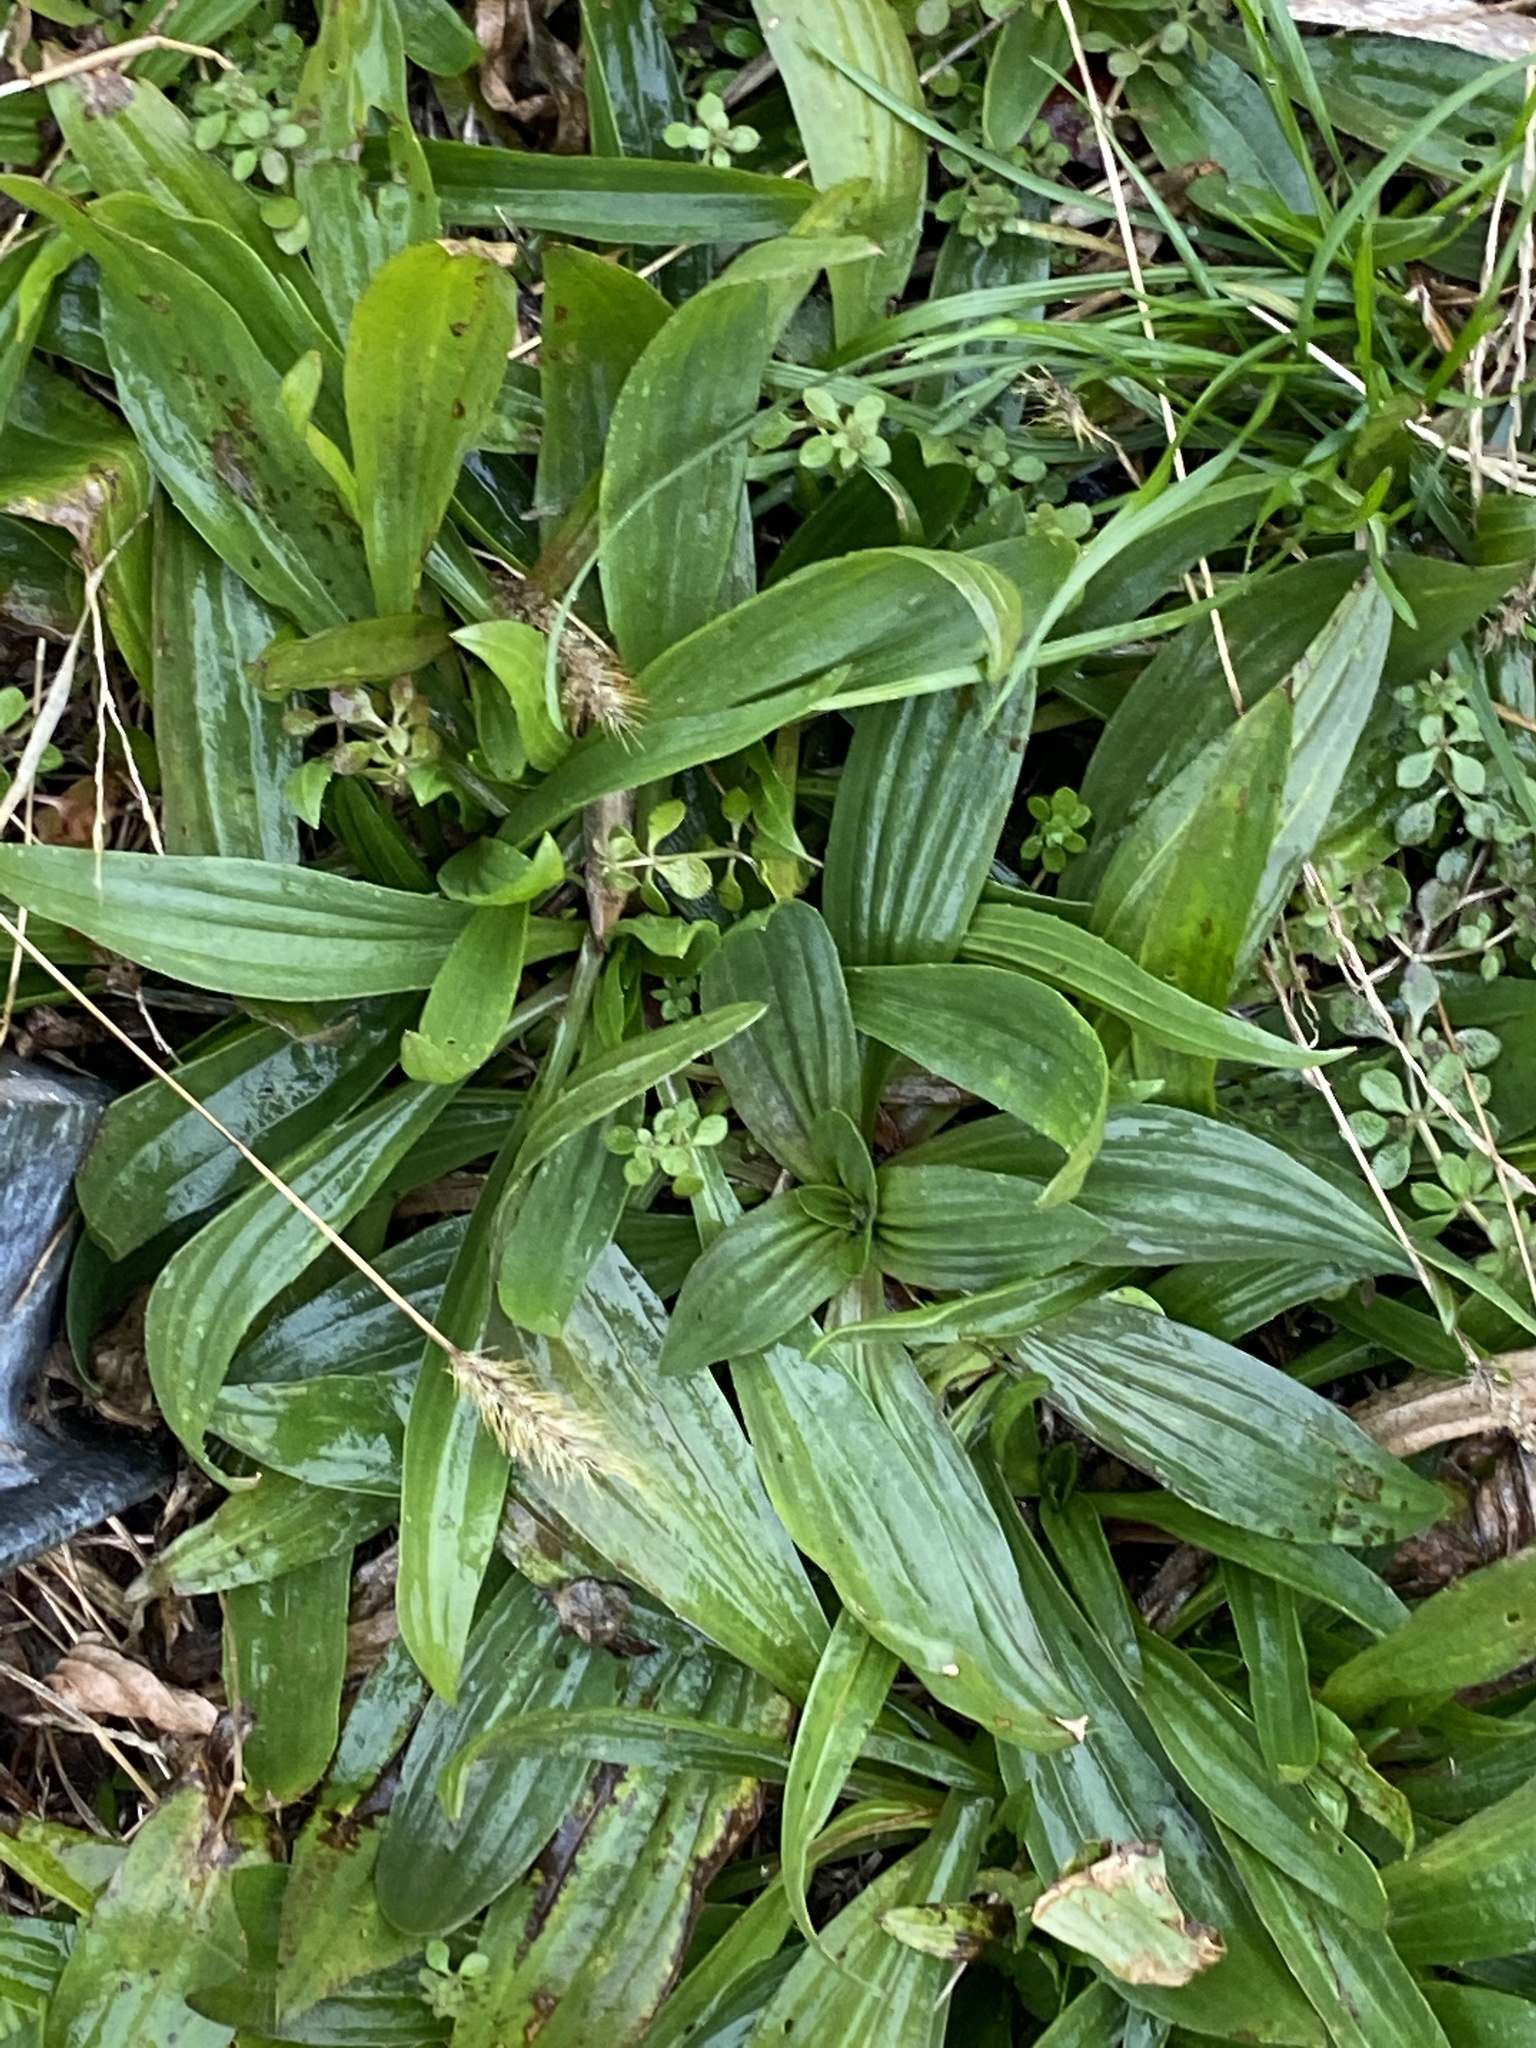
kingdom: Plantae
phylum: Tracheophyta
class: Magnoliopsida
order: Lamiales
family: Plantaginaceae
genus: Plantago
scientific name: Plantago lanceolata
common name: Ribwort plantain
